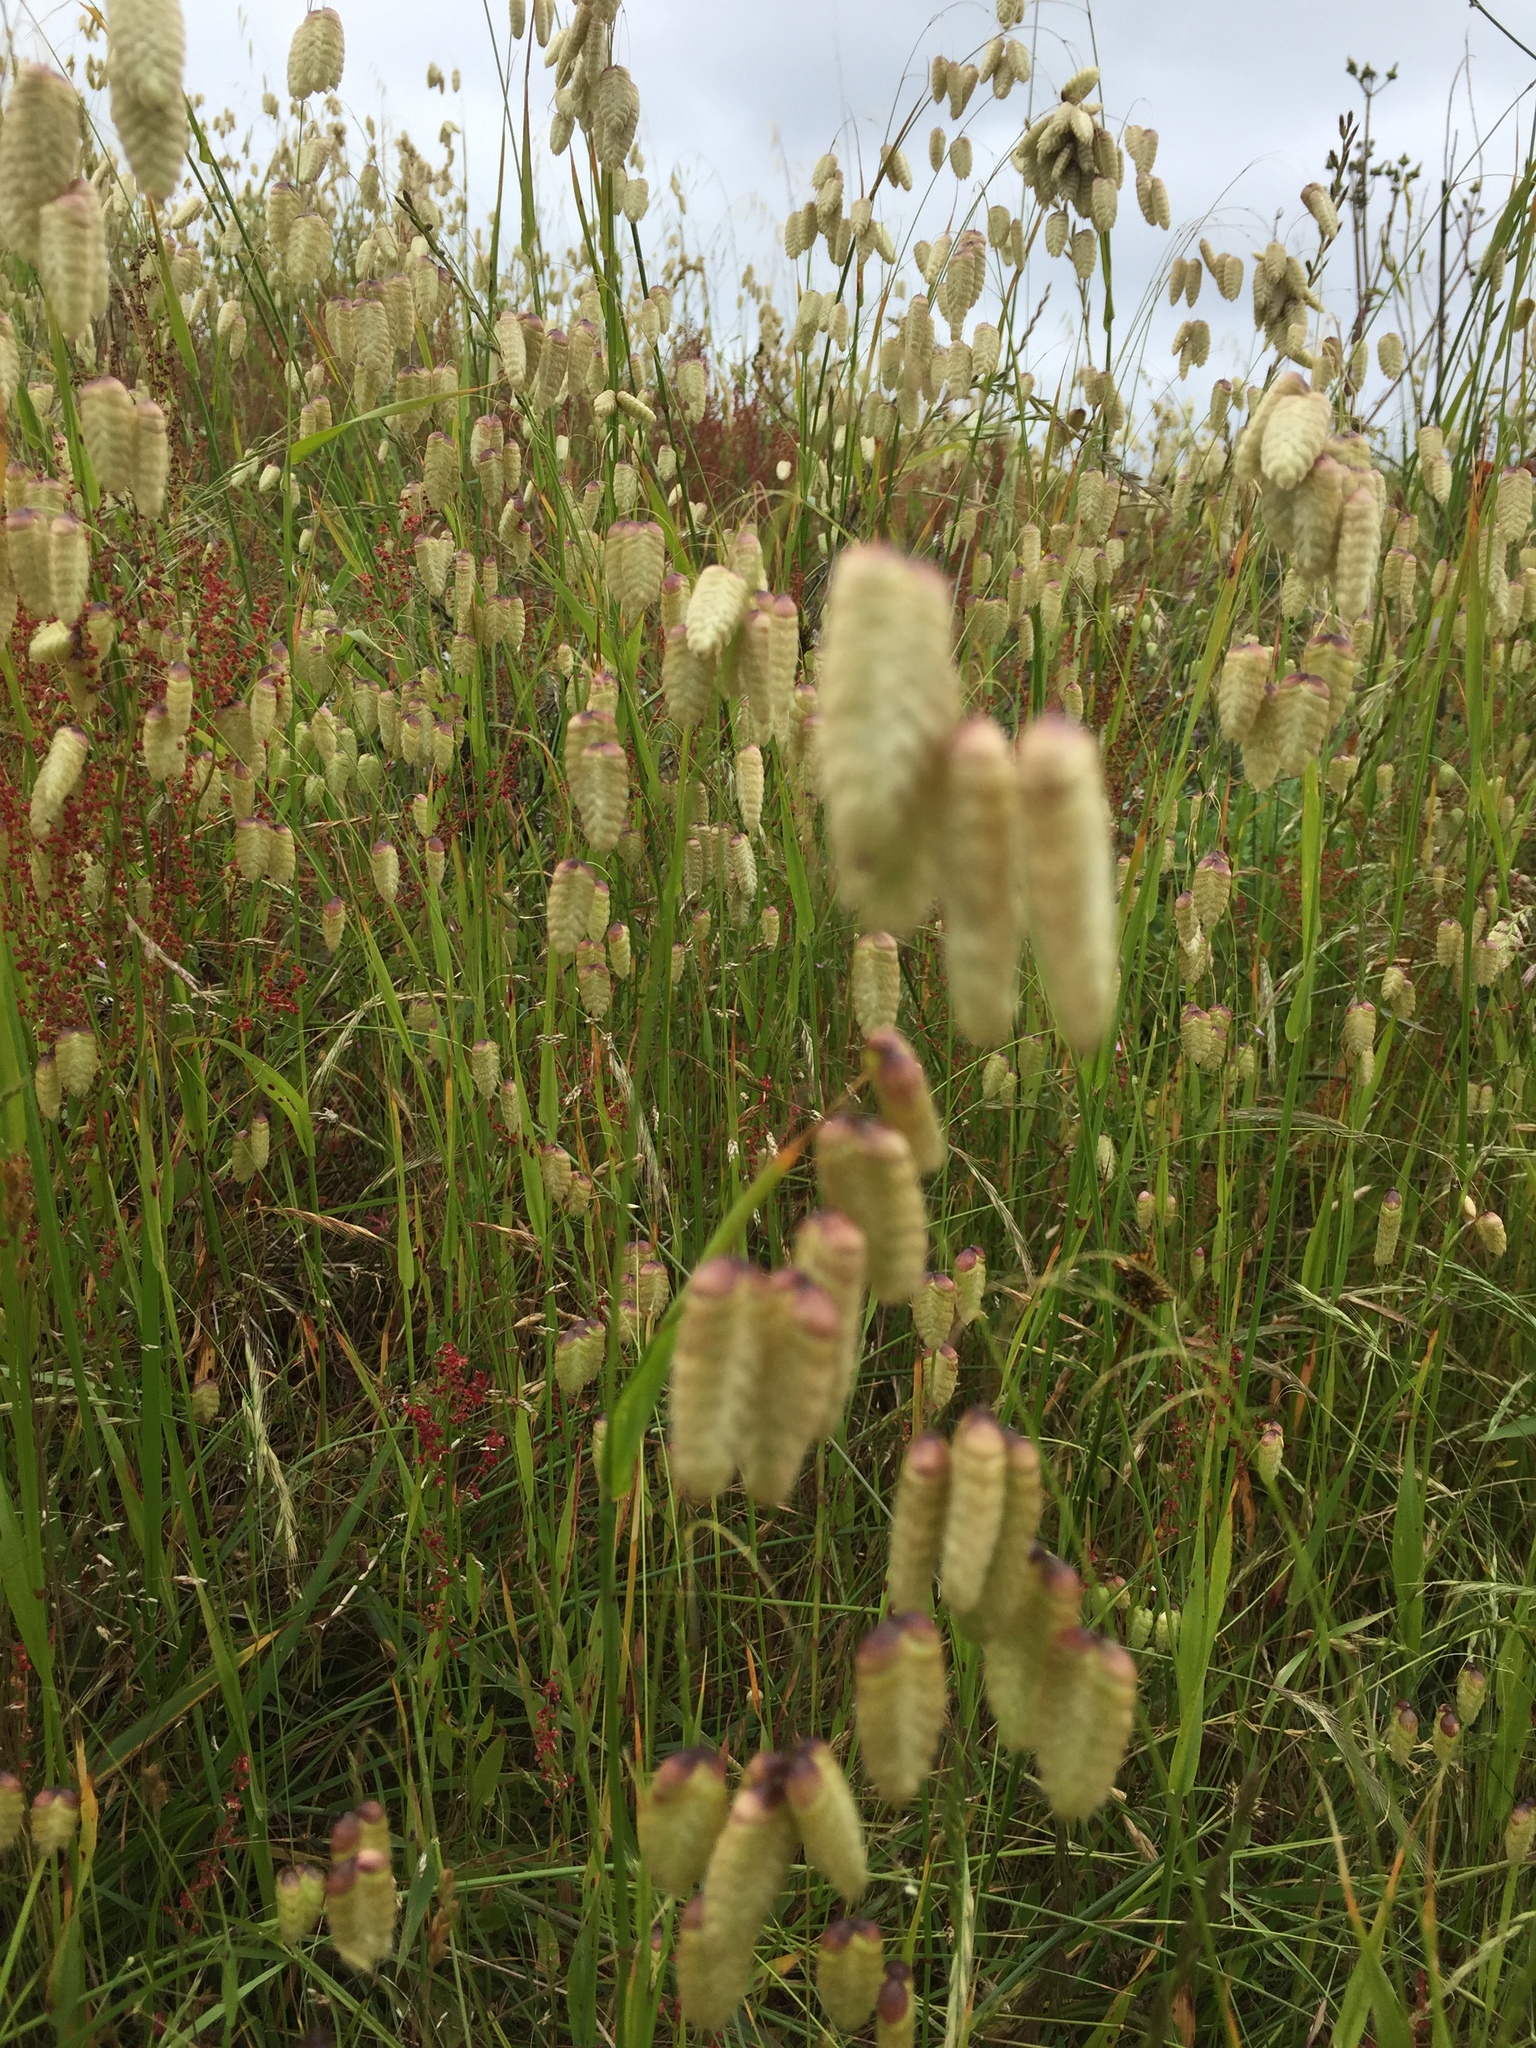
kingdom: Plantae
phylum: Tracheophyta
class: Liliopsida
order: Poales
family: Poaceae
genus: Briza
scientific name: Briza maxima
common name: Big quakinggrass
